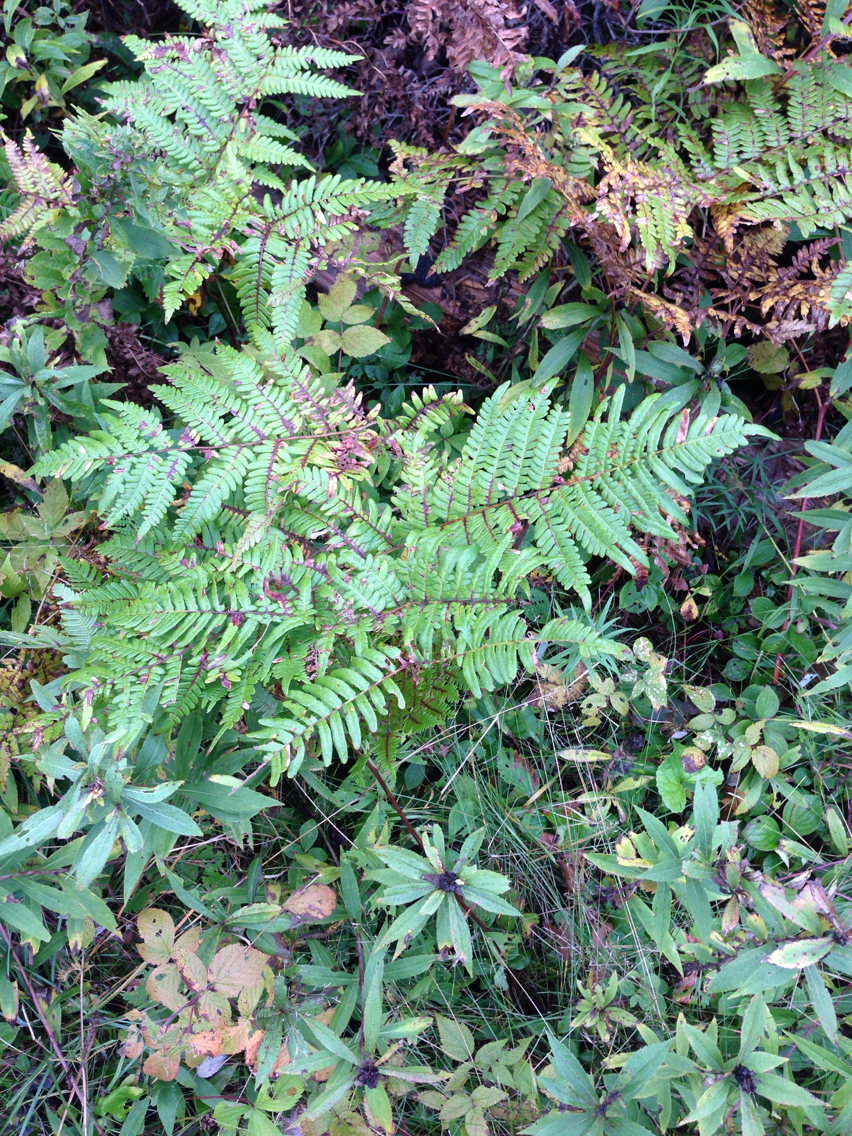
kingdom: Plantae
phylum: Tracheophyta
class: Polypodiopsida
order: Polypodiales
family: Dennstaedtiaceae
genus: Pteridium
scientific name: Pteridium aquilinum
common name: Bracken
